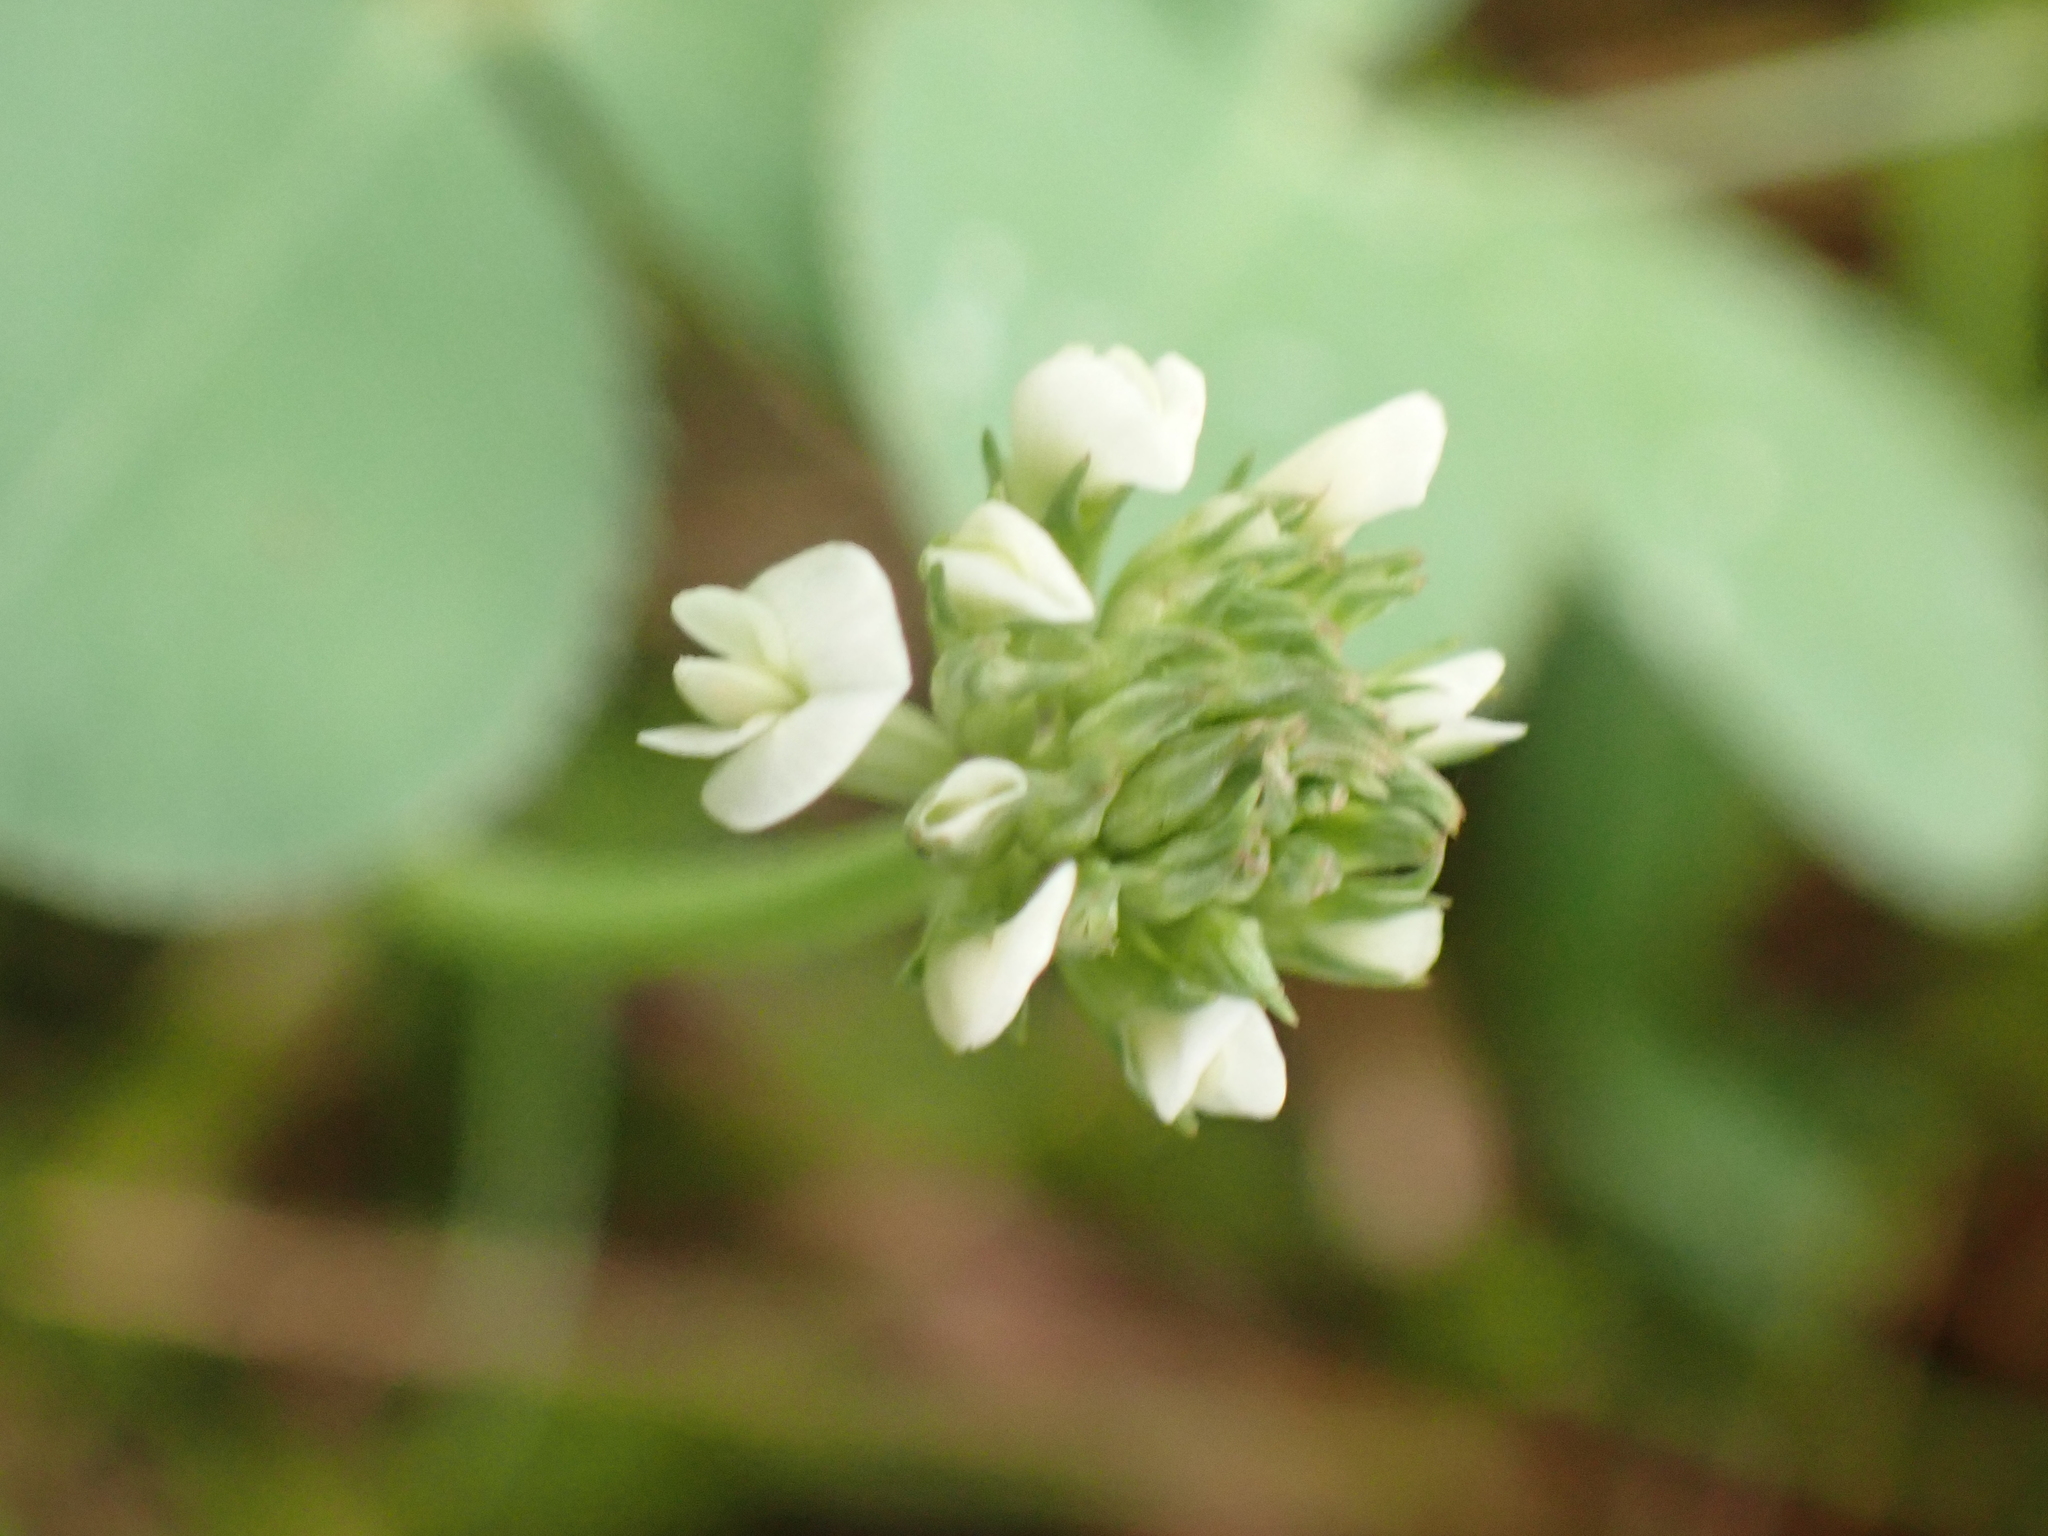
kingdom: Plantae
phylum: Tracheophyta
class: Magnoliopsida
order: Fabales
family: Fabaceae
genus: Trifolium
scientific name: Trifolium repens
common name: White clover
